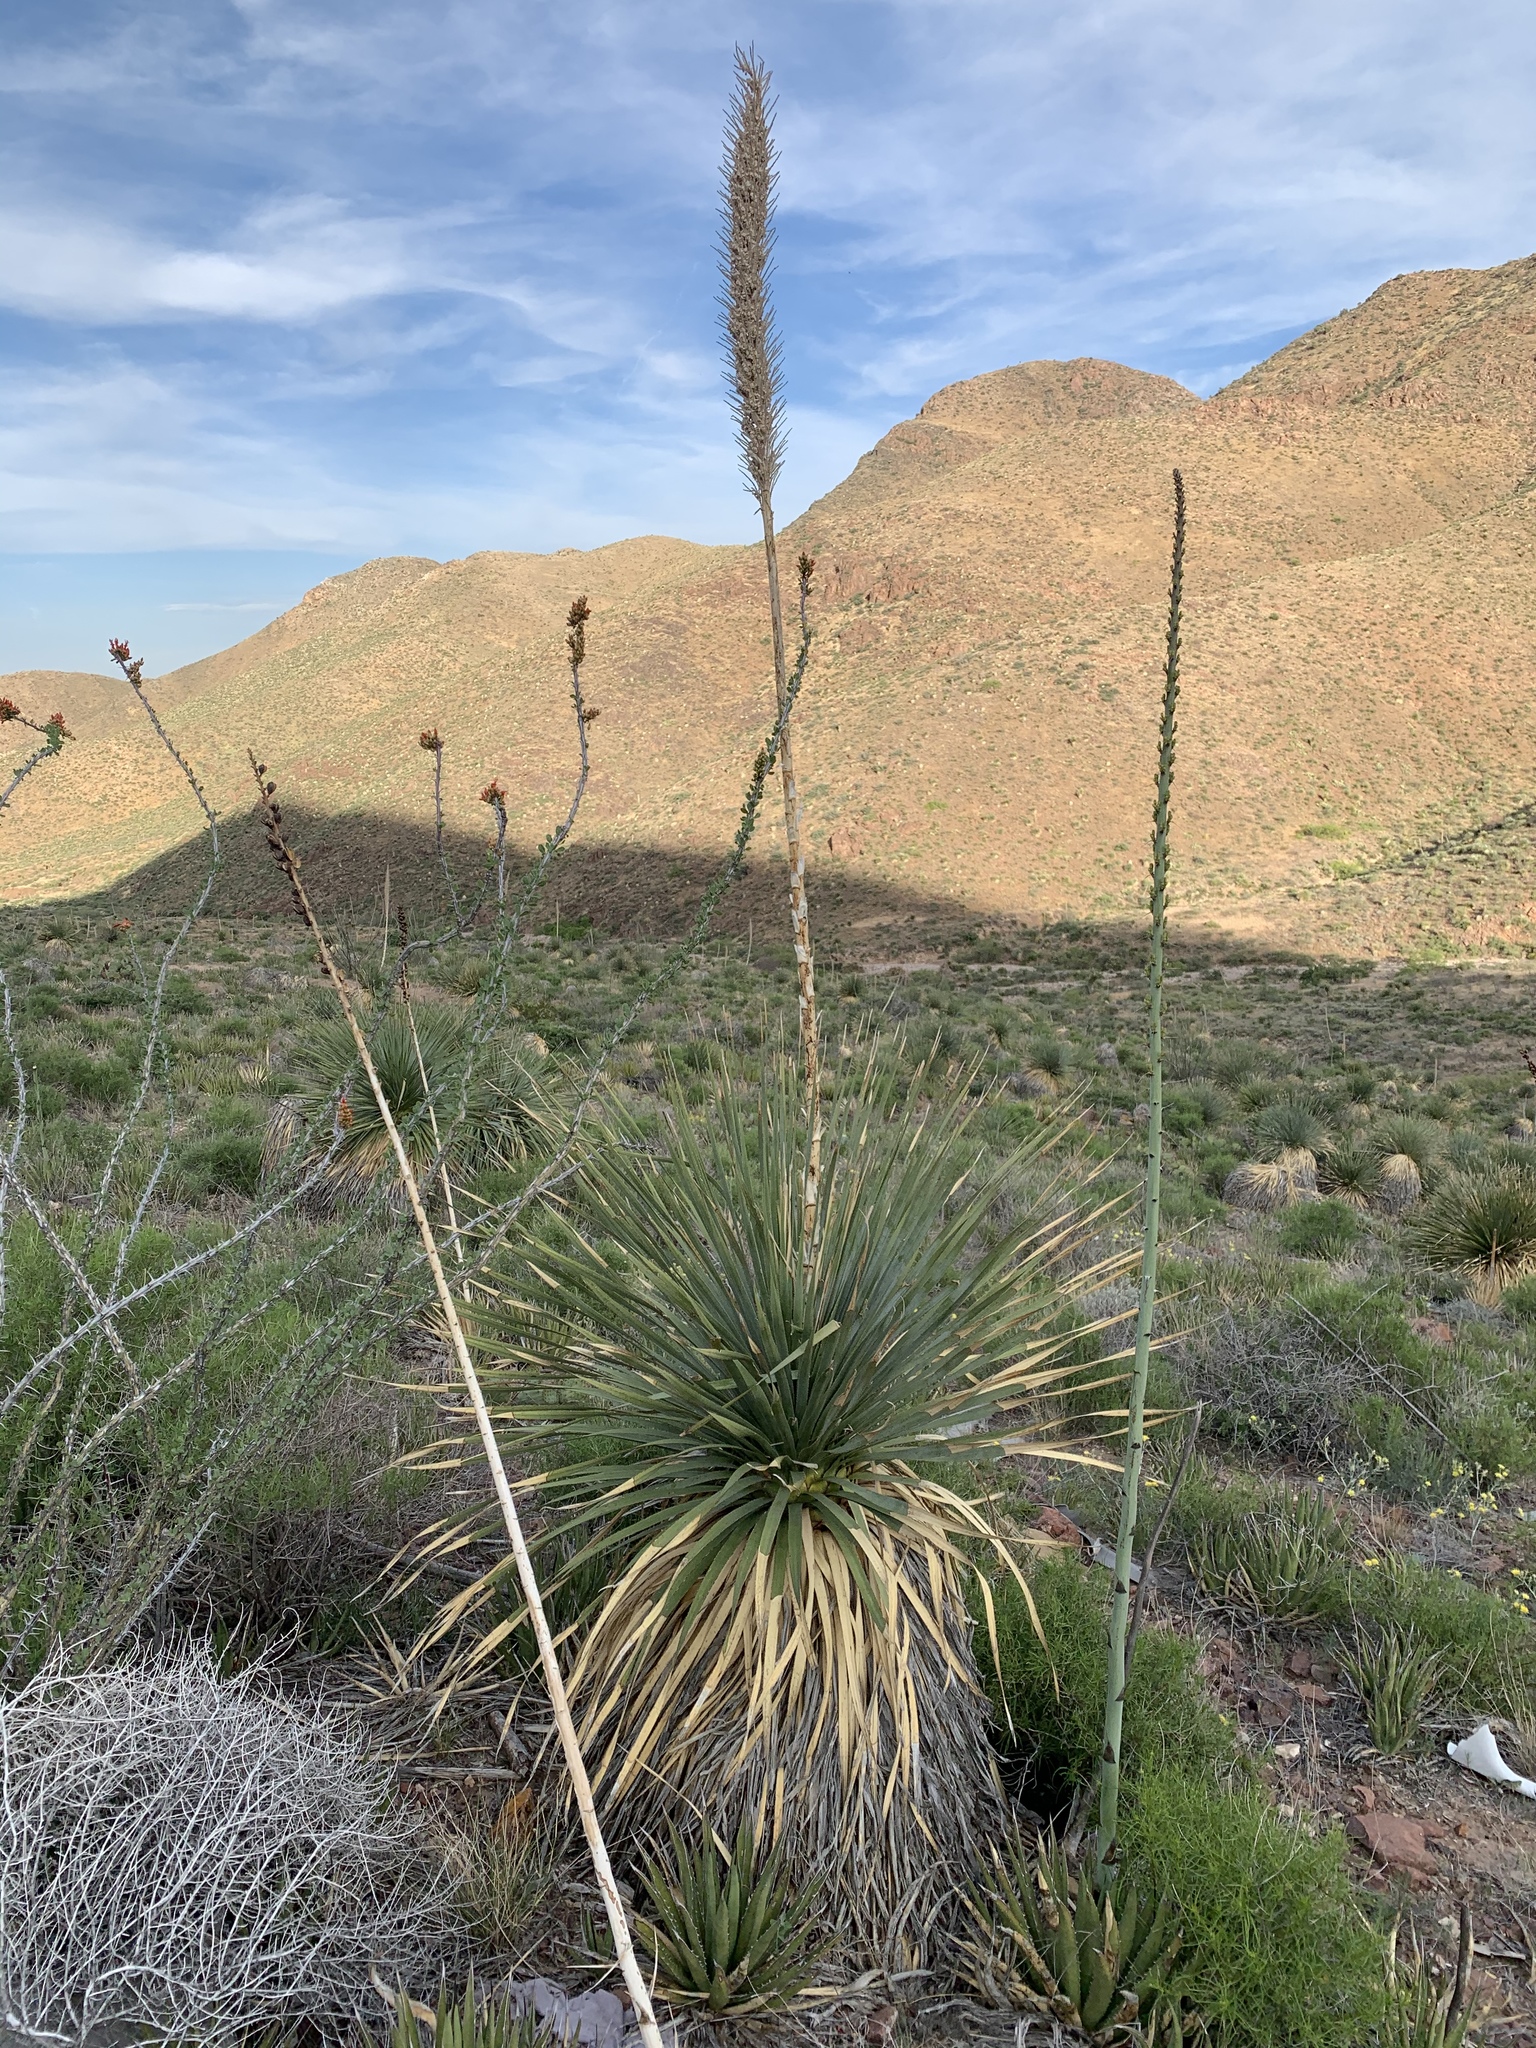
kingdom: Plantae
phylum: Tracheophyta
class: Liliopsida
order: Asparagales
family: Asparagaceae
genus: Dasylirion
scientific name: Dasylirion wheeleri
